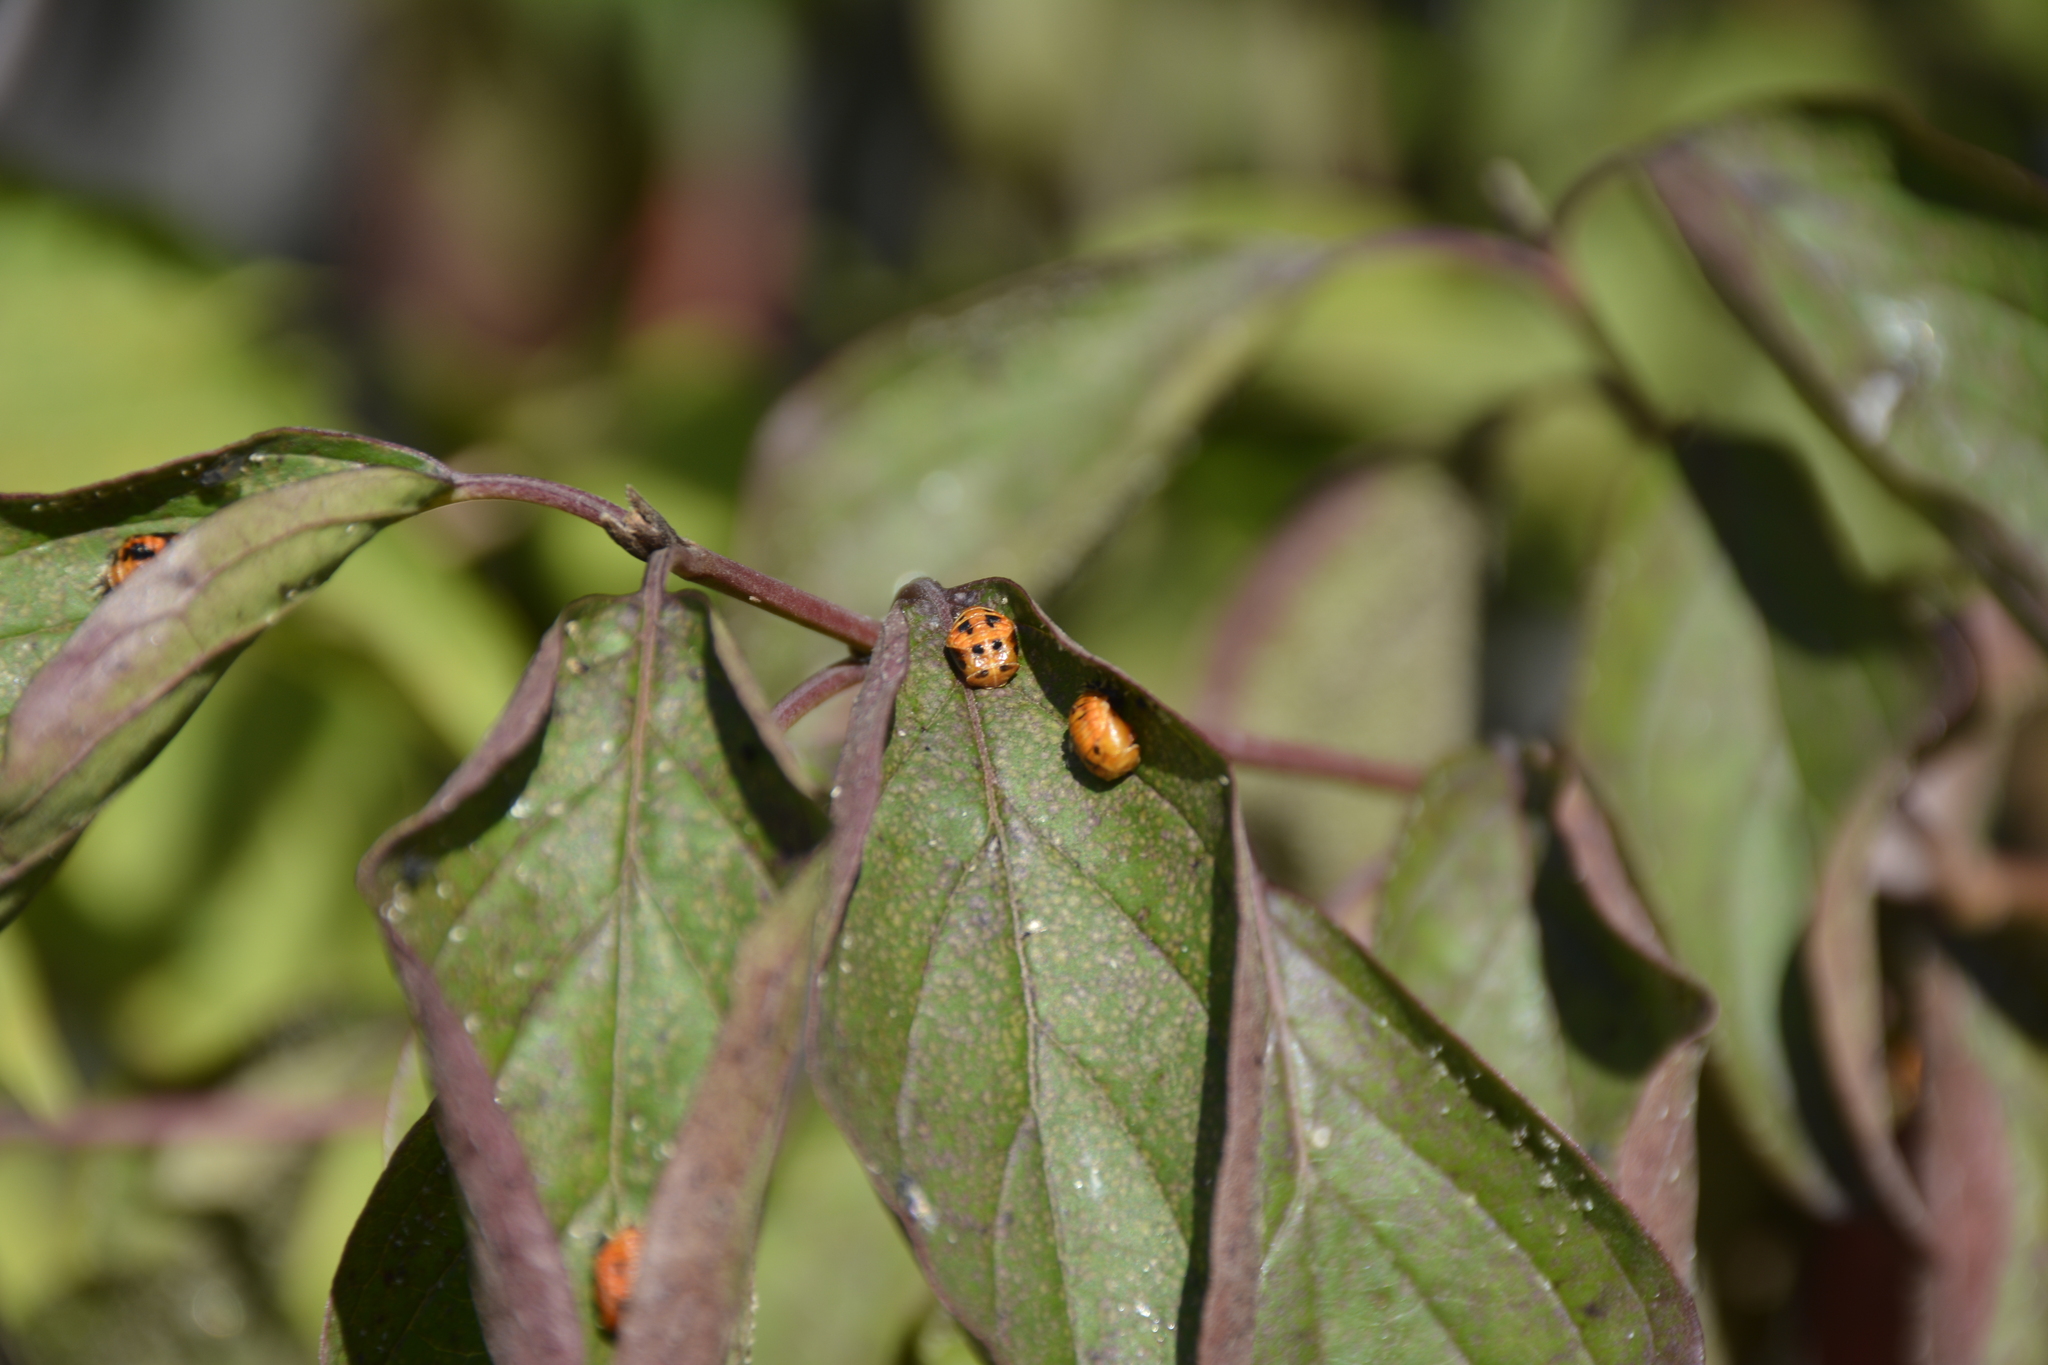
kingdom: Animalia
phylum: Arthropoda
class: Insecta
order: Coleoptera
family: Coccinellidae
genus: Harmonia
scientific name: Harmonia axyridis
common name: Harlequin ladybird
